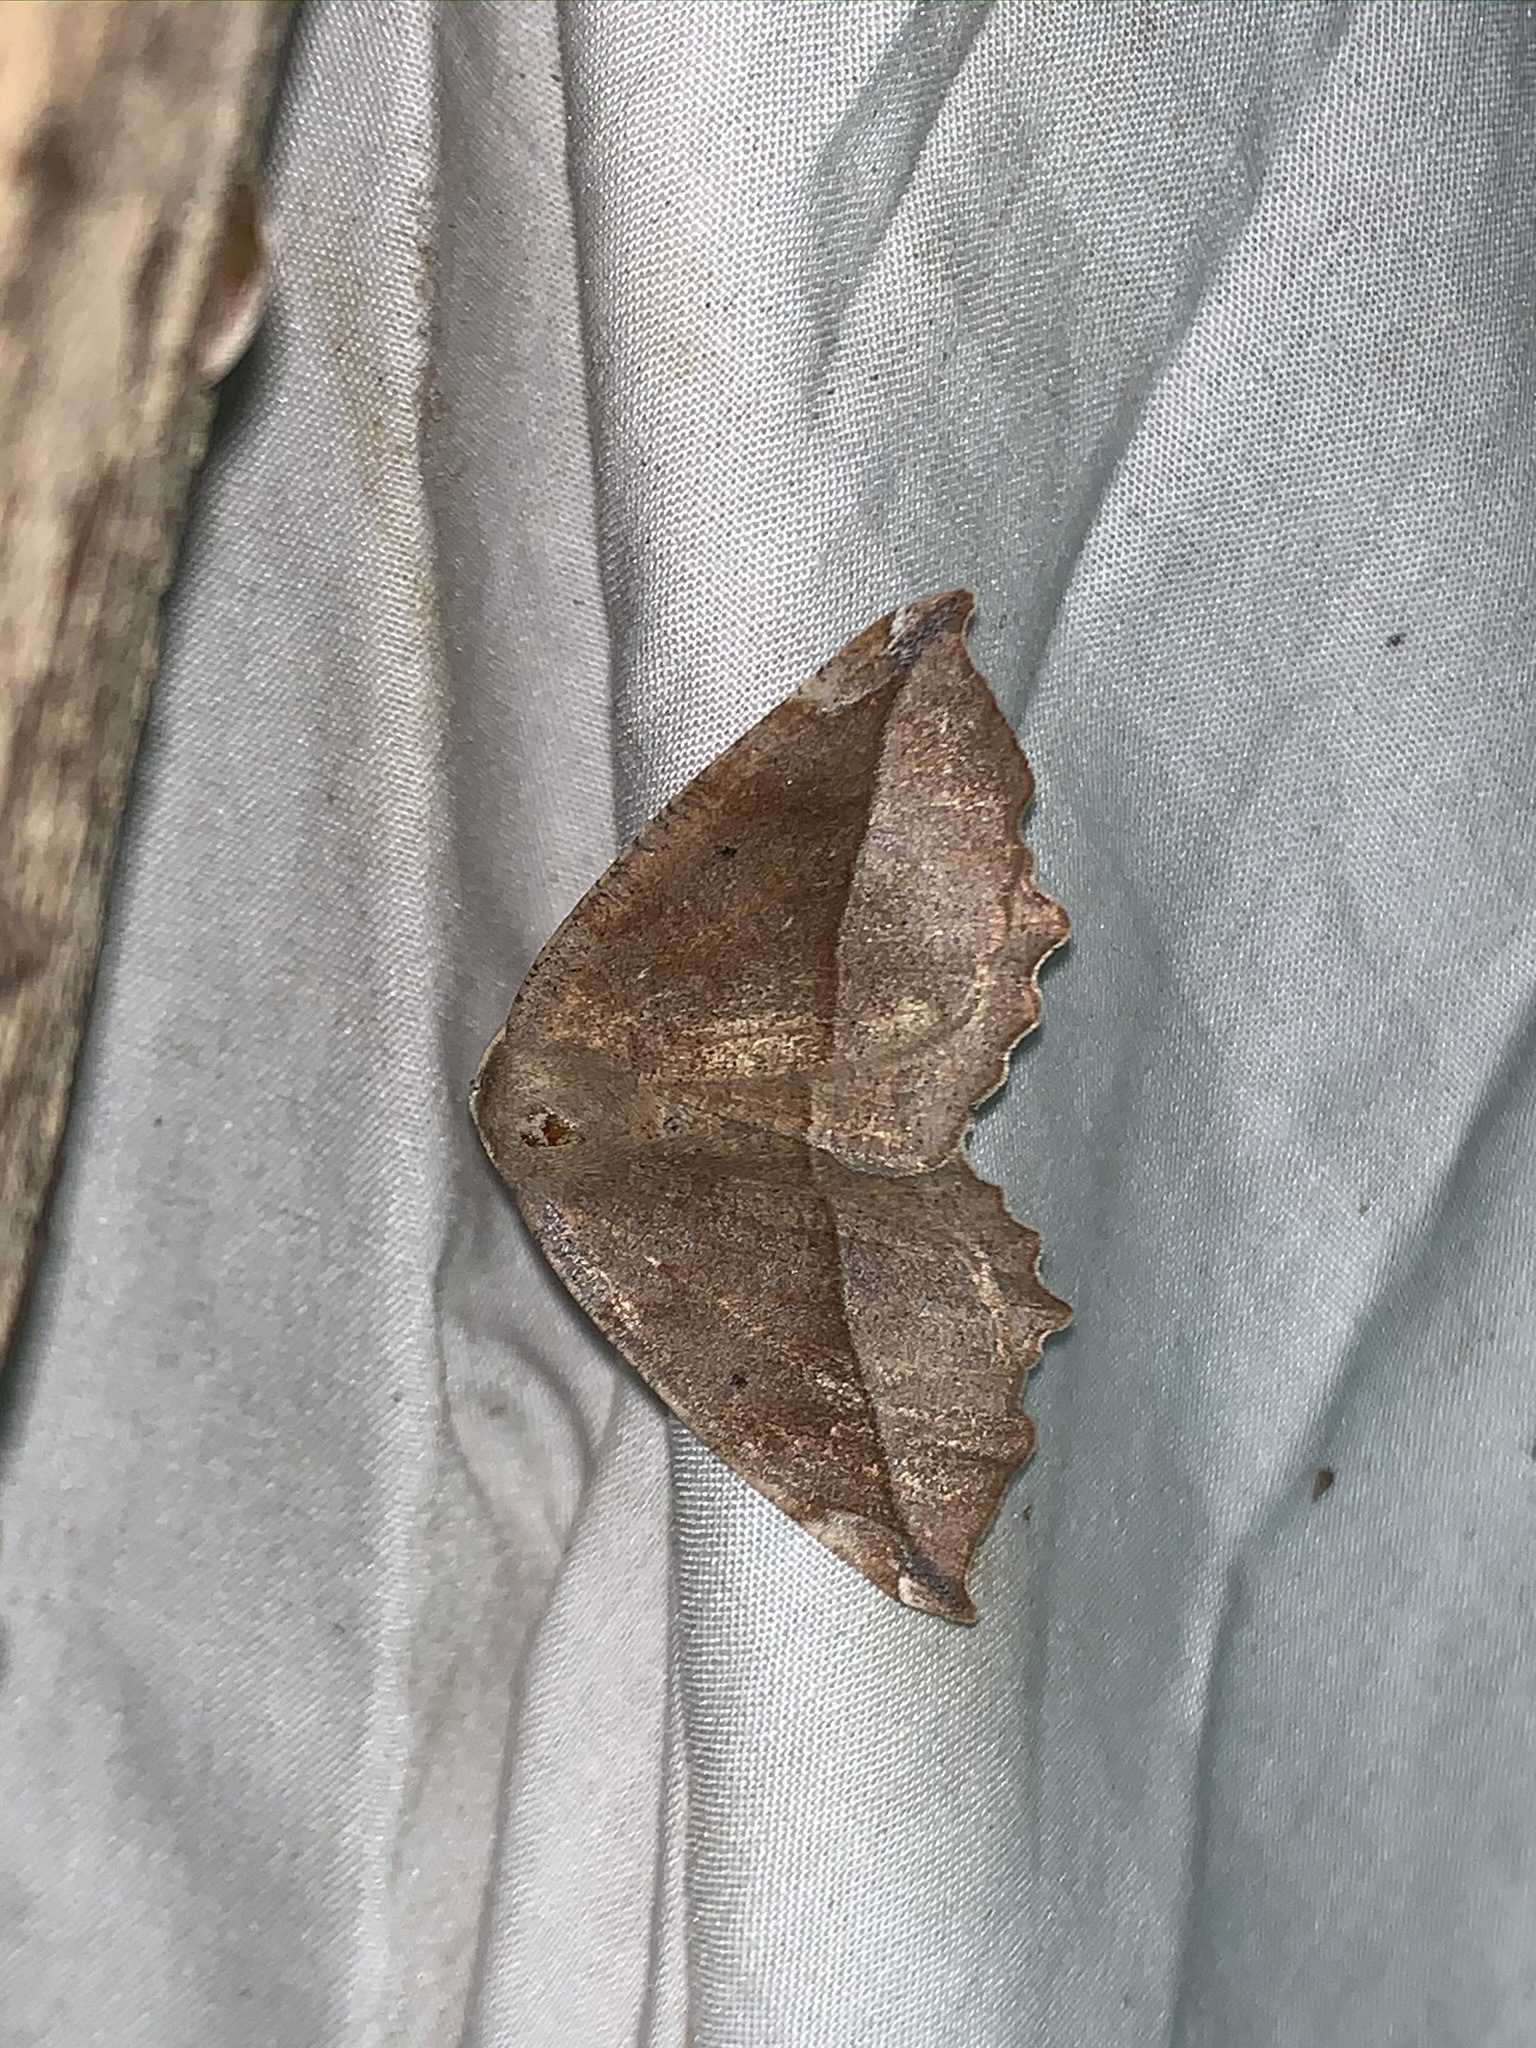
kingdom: Animalia
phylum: Arthropoda
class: Insecta
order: Lepidoptera
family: Geometridae
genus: Eutrapela
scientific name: Eutrapela clemataria
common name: Curved-toothed geometer
